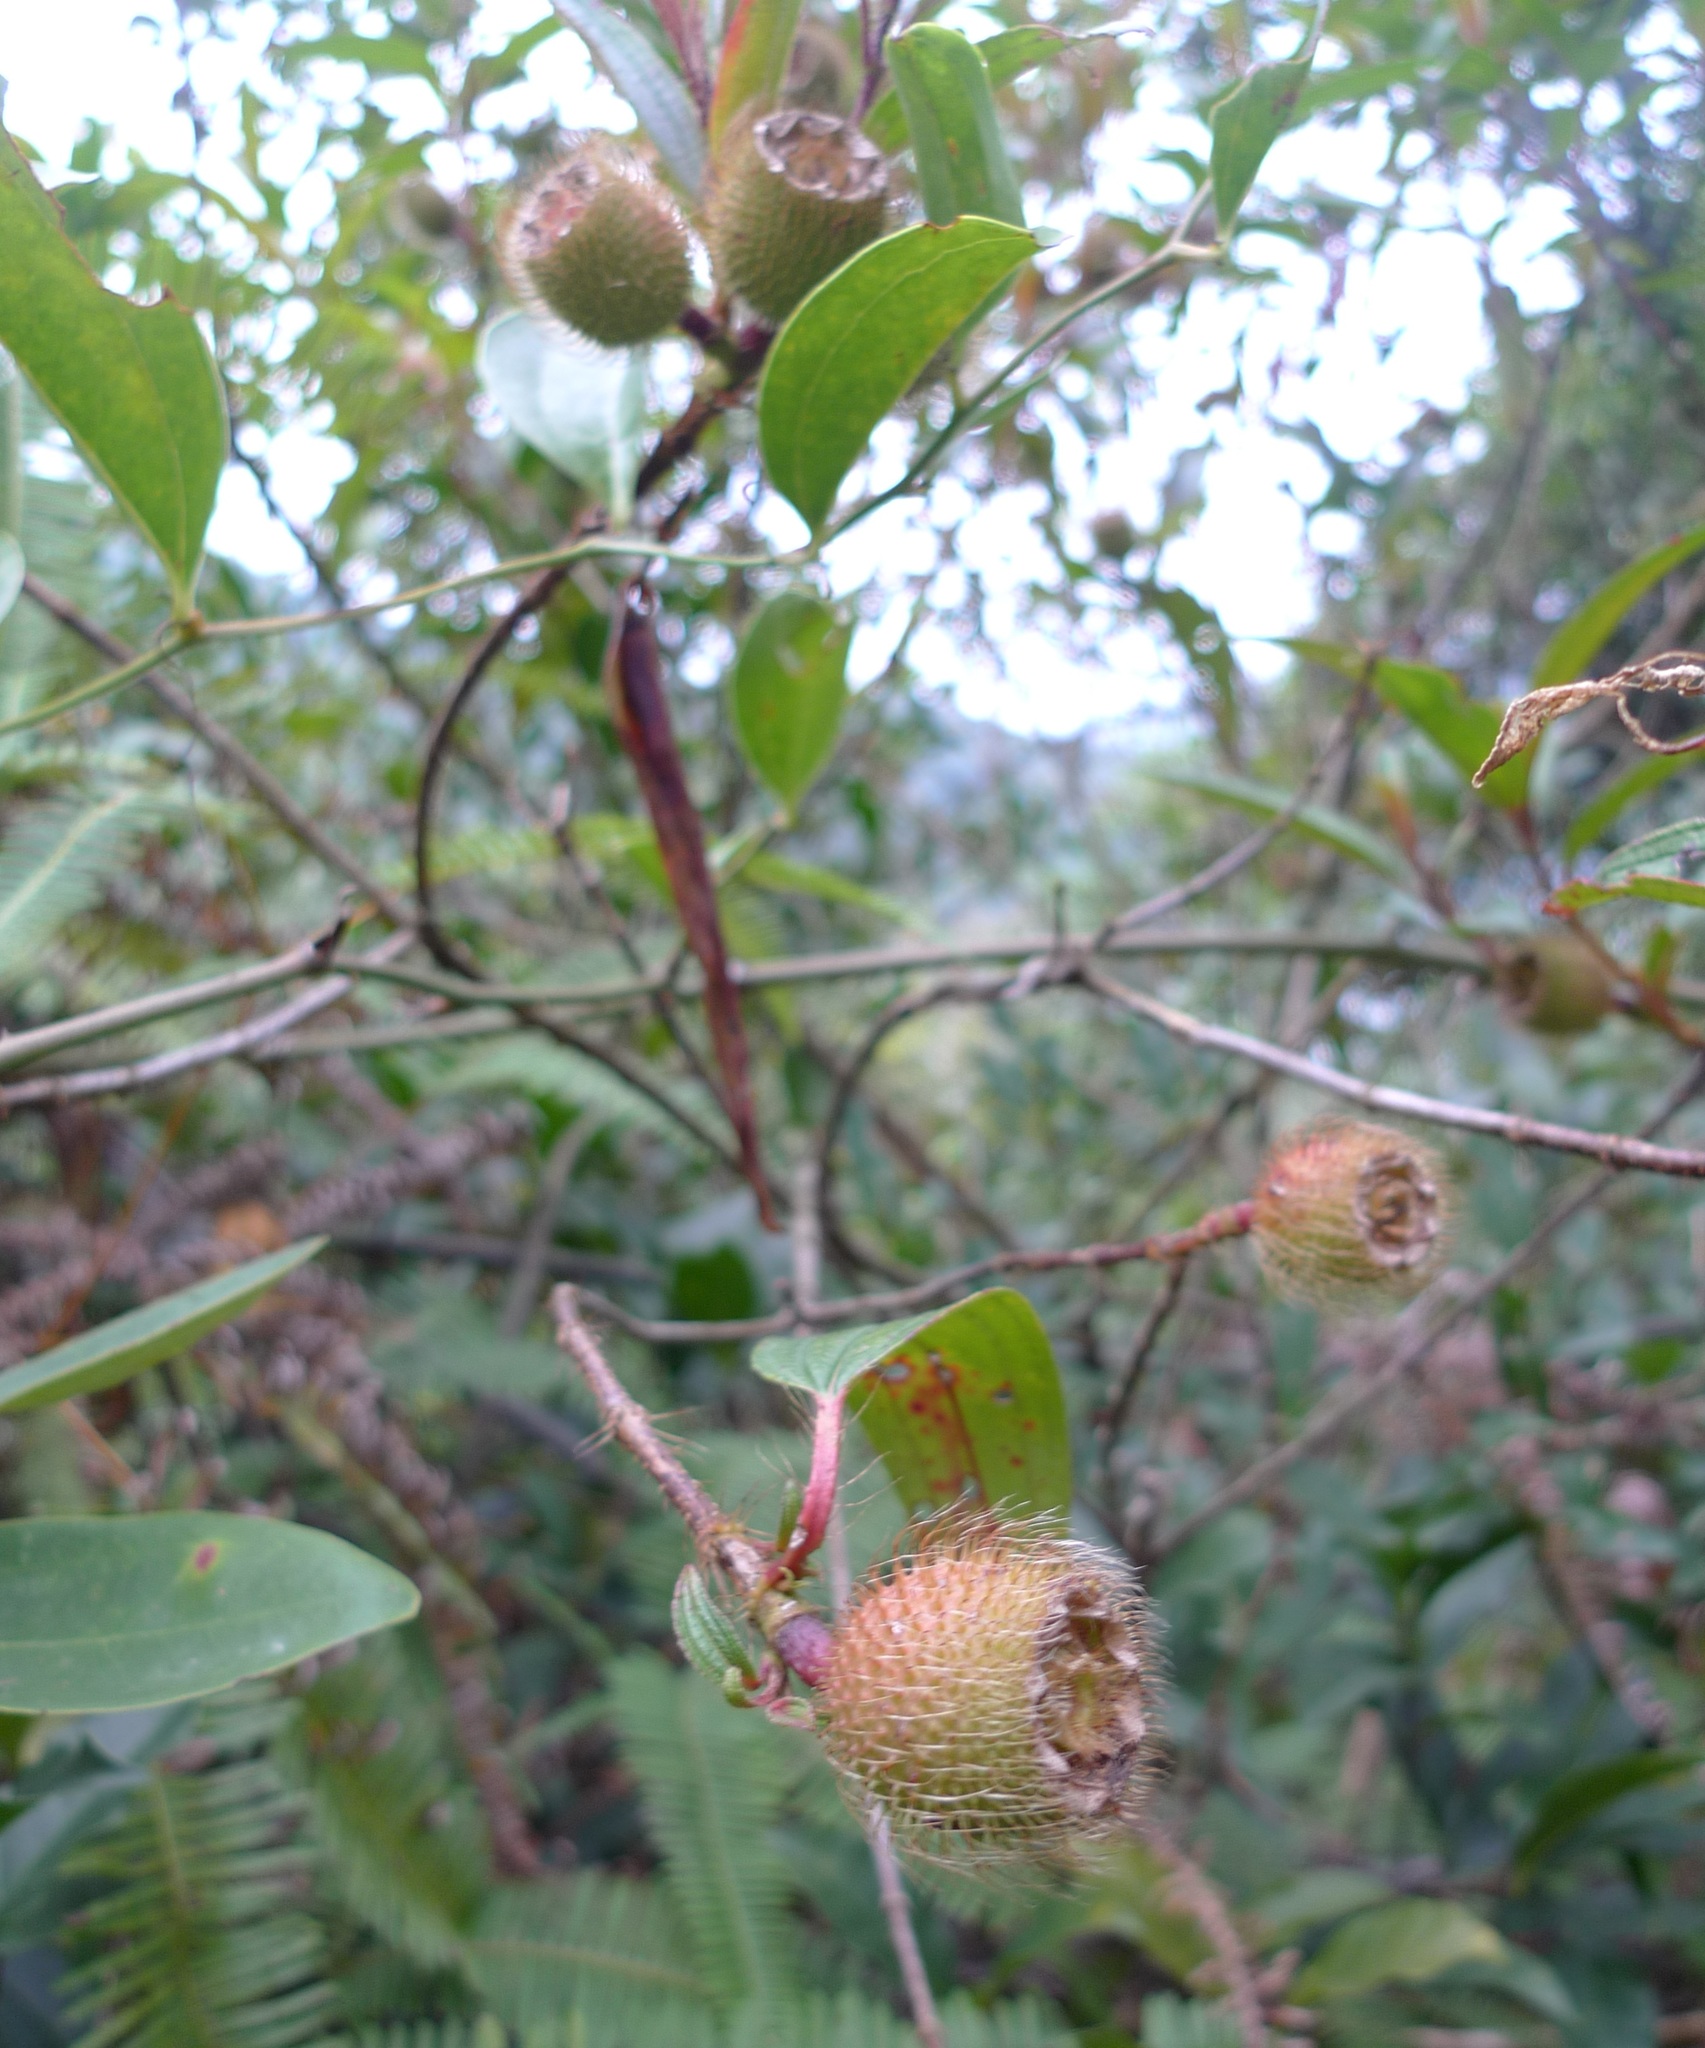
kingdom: Plantae
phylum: Tracheophyta
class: Magnoliopsida
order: Myrtales
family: Melastomataceae
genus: Melastoma
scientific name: Melastoma sanguineum
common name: Red melastome
